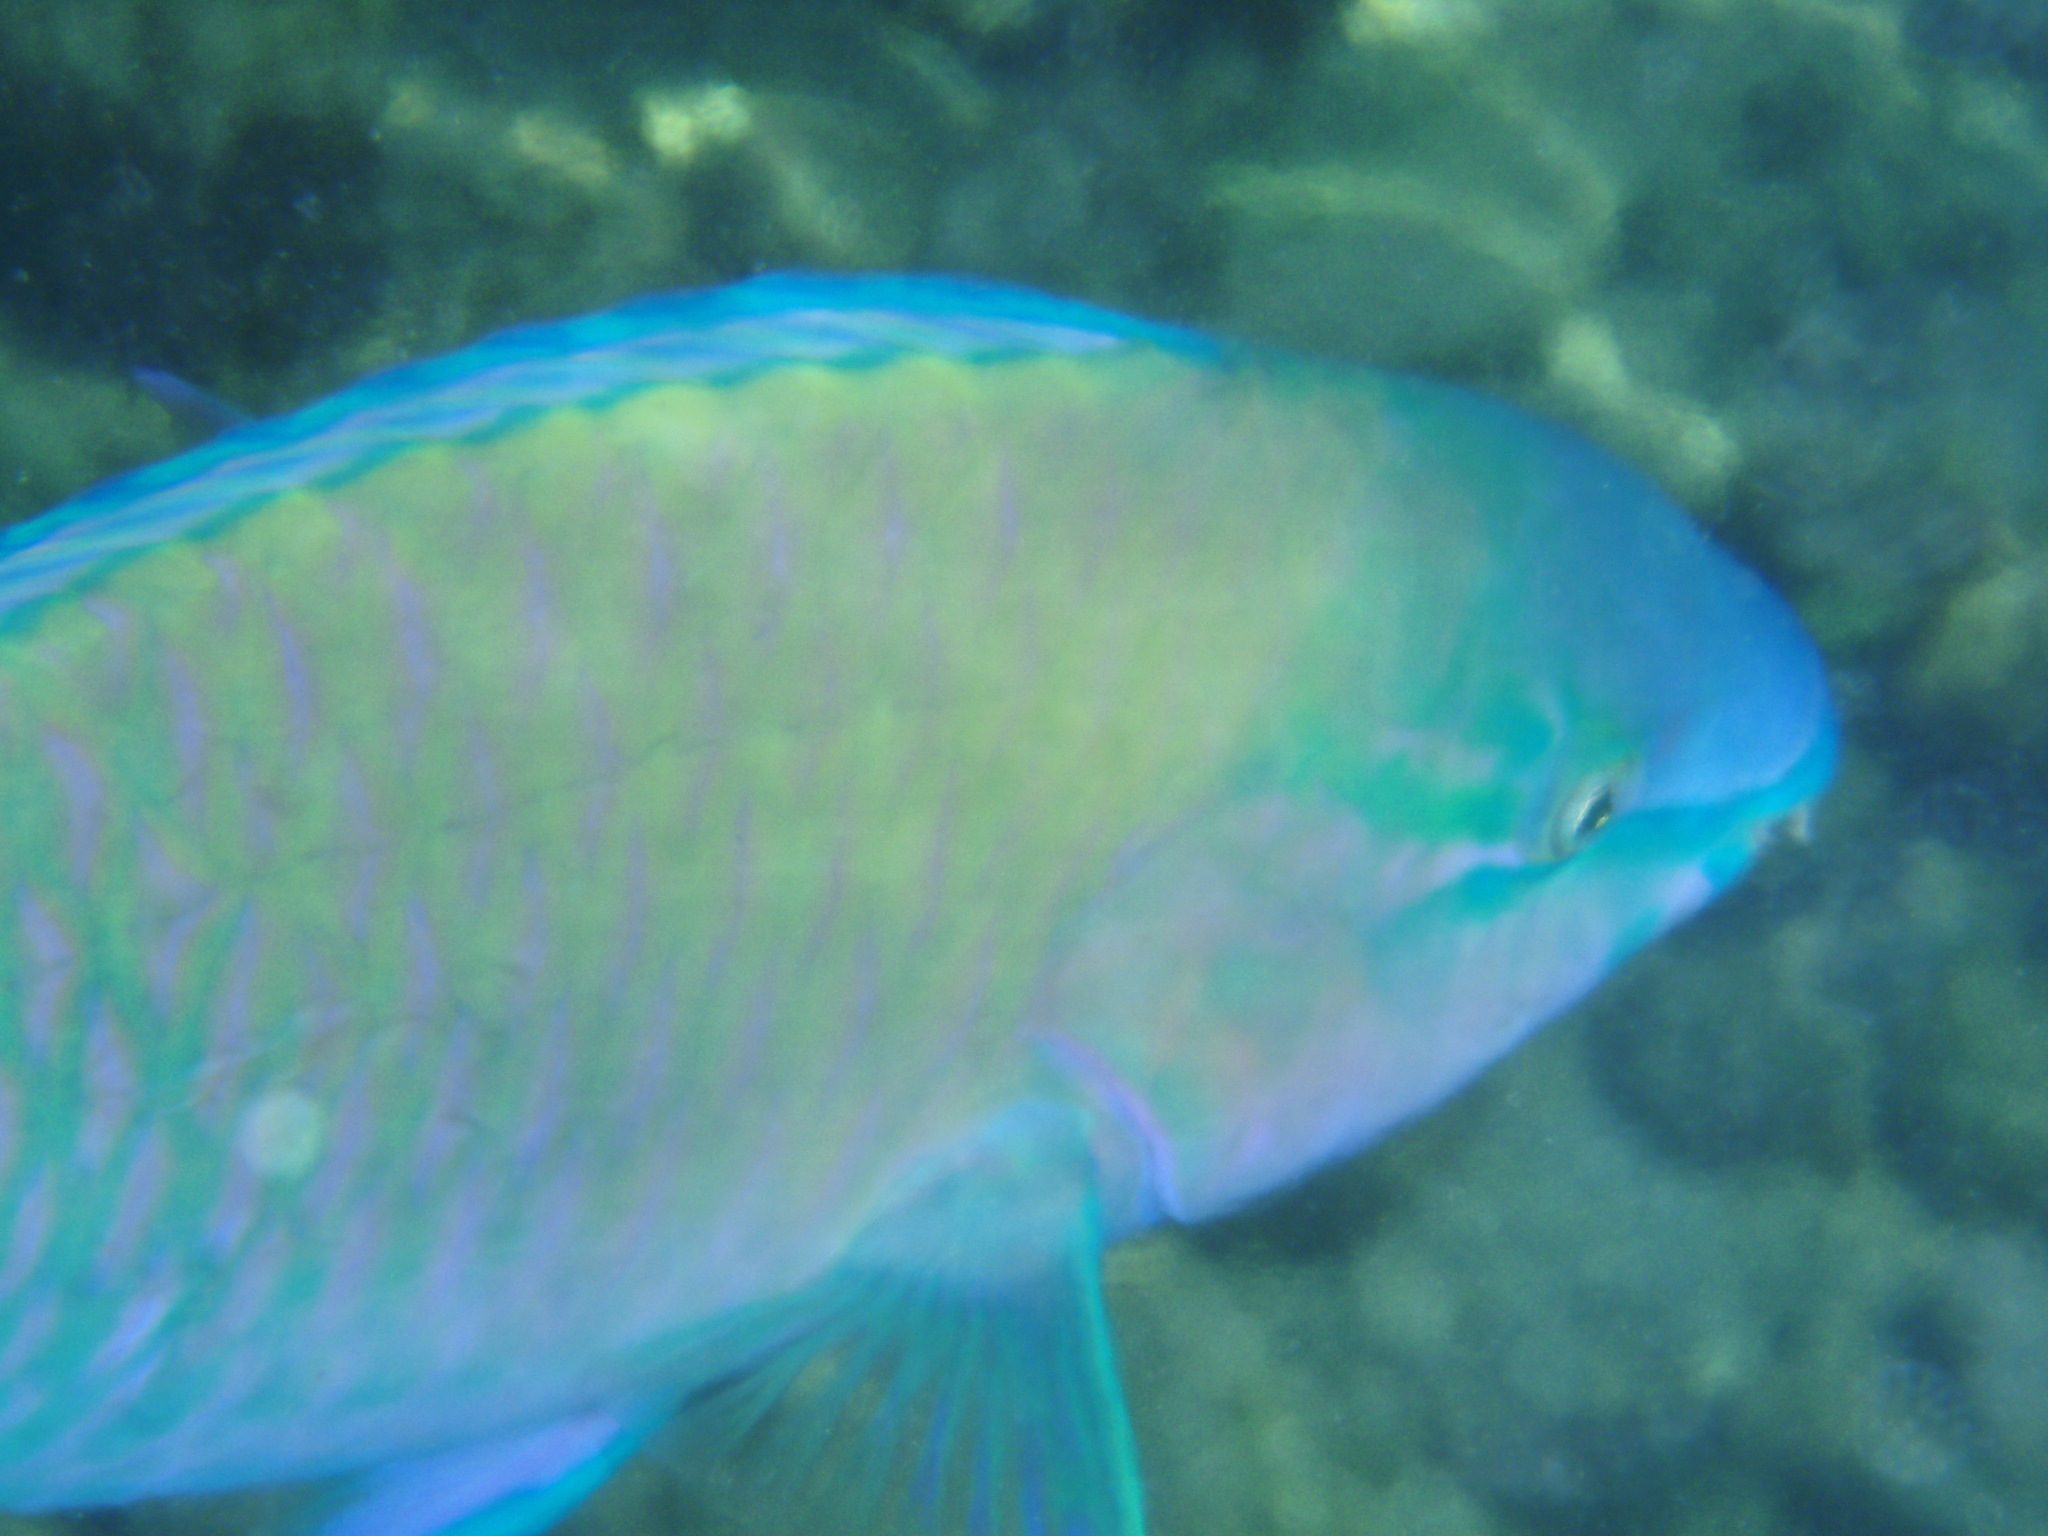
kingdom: Animalia
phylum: Chordata
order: Perciformes
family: Scaridae
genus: Scarus
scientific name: Scarus psittacus
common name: Palenose parrotfish
